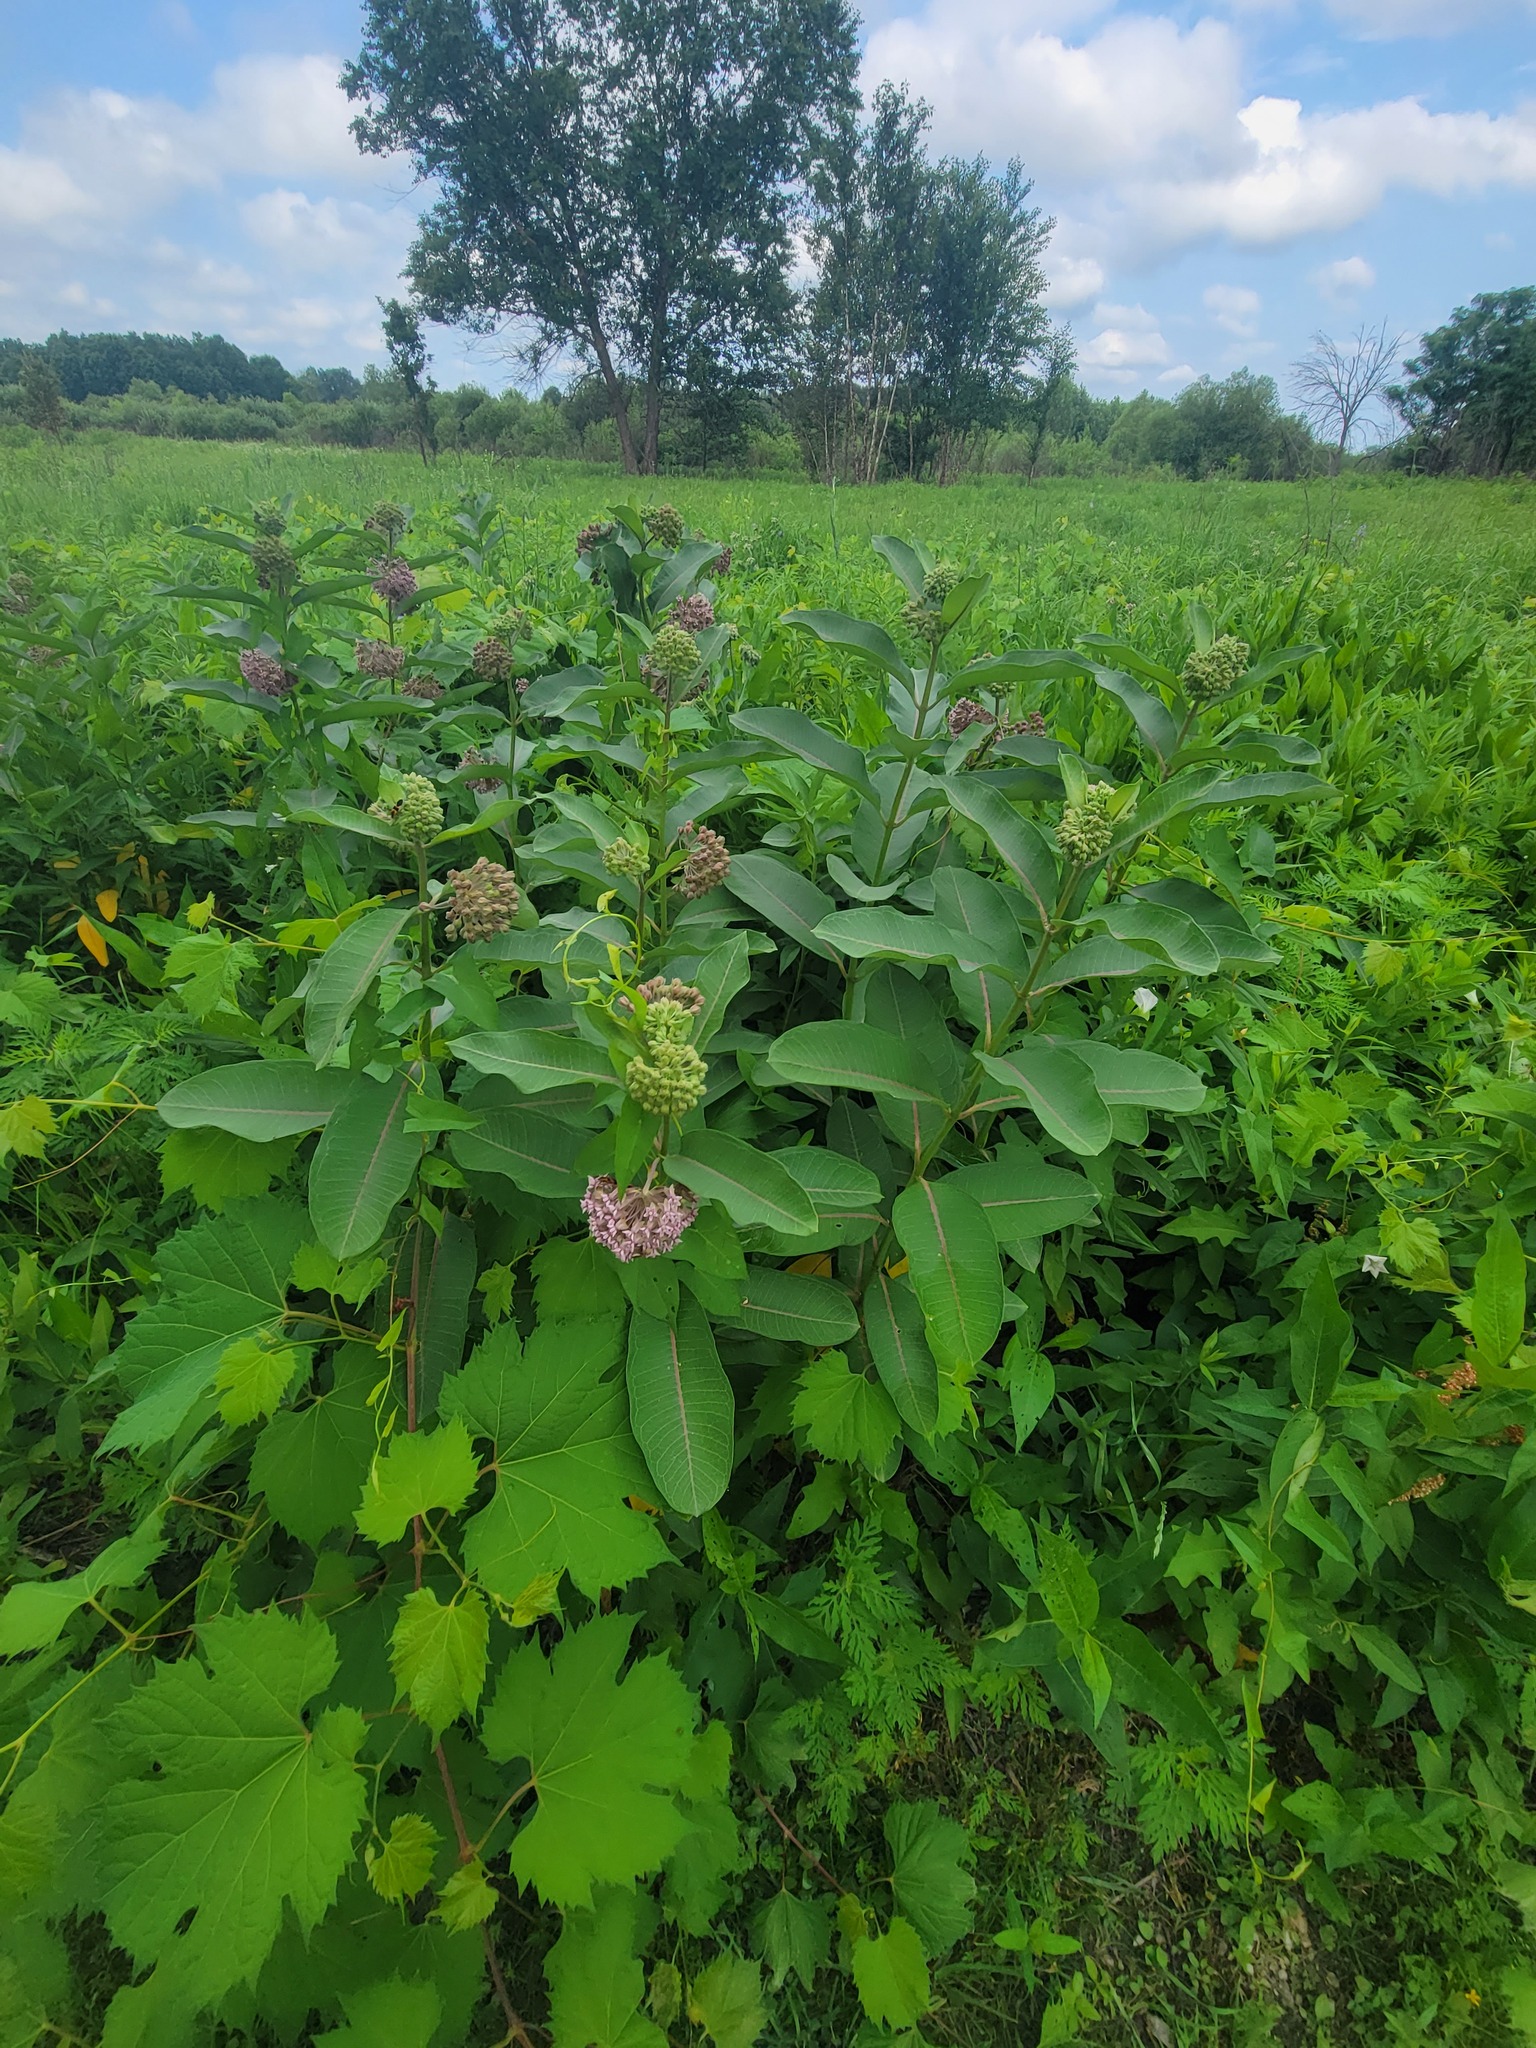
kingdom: Plantae
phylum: Tracheophyta
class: Magnoliopsida
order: Gentianales
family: Apocynaceae
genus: Asclepias
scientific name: Asclepias syriaca
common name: Common milkweed
